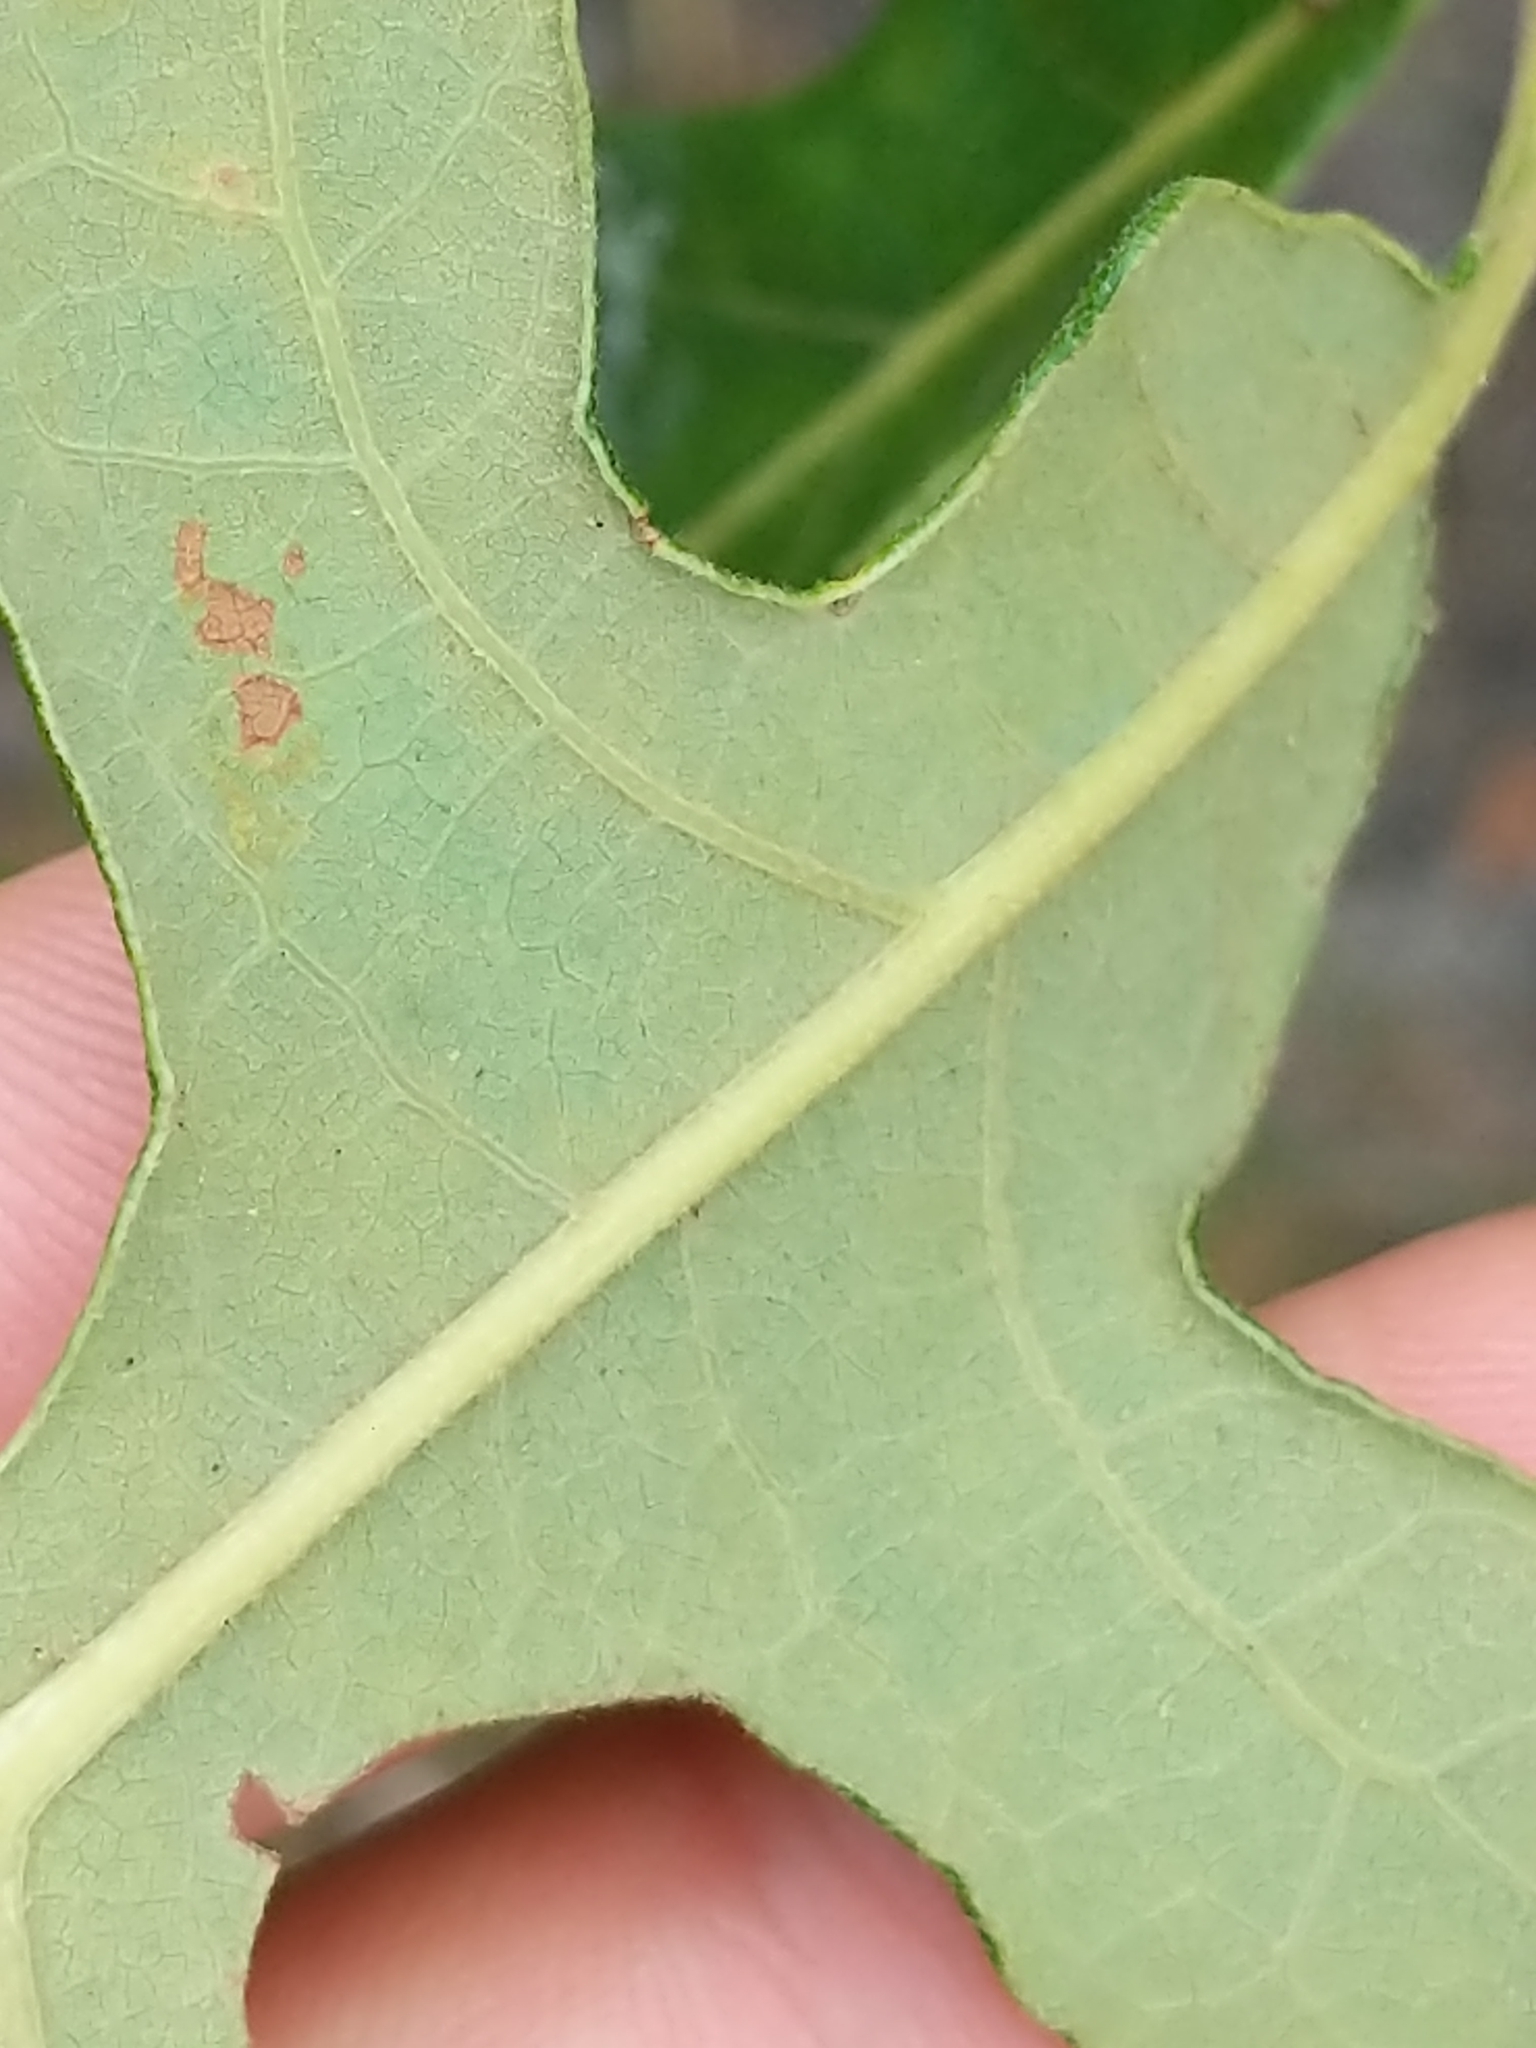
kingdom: Plantae
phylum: Tracheophyta
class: Magnoliopsida
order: Fagales
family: Fagaceae
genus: Quercus
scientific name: Quercus stellata
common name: Post oak
